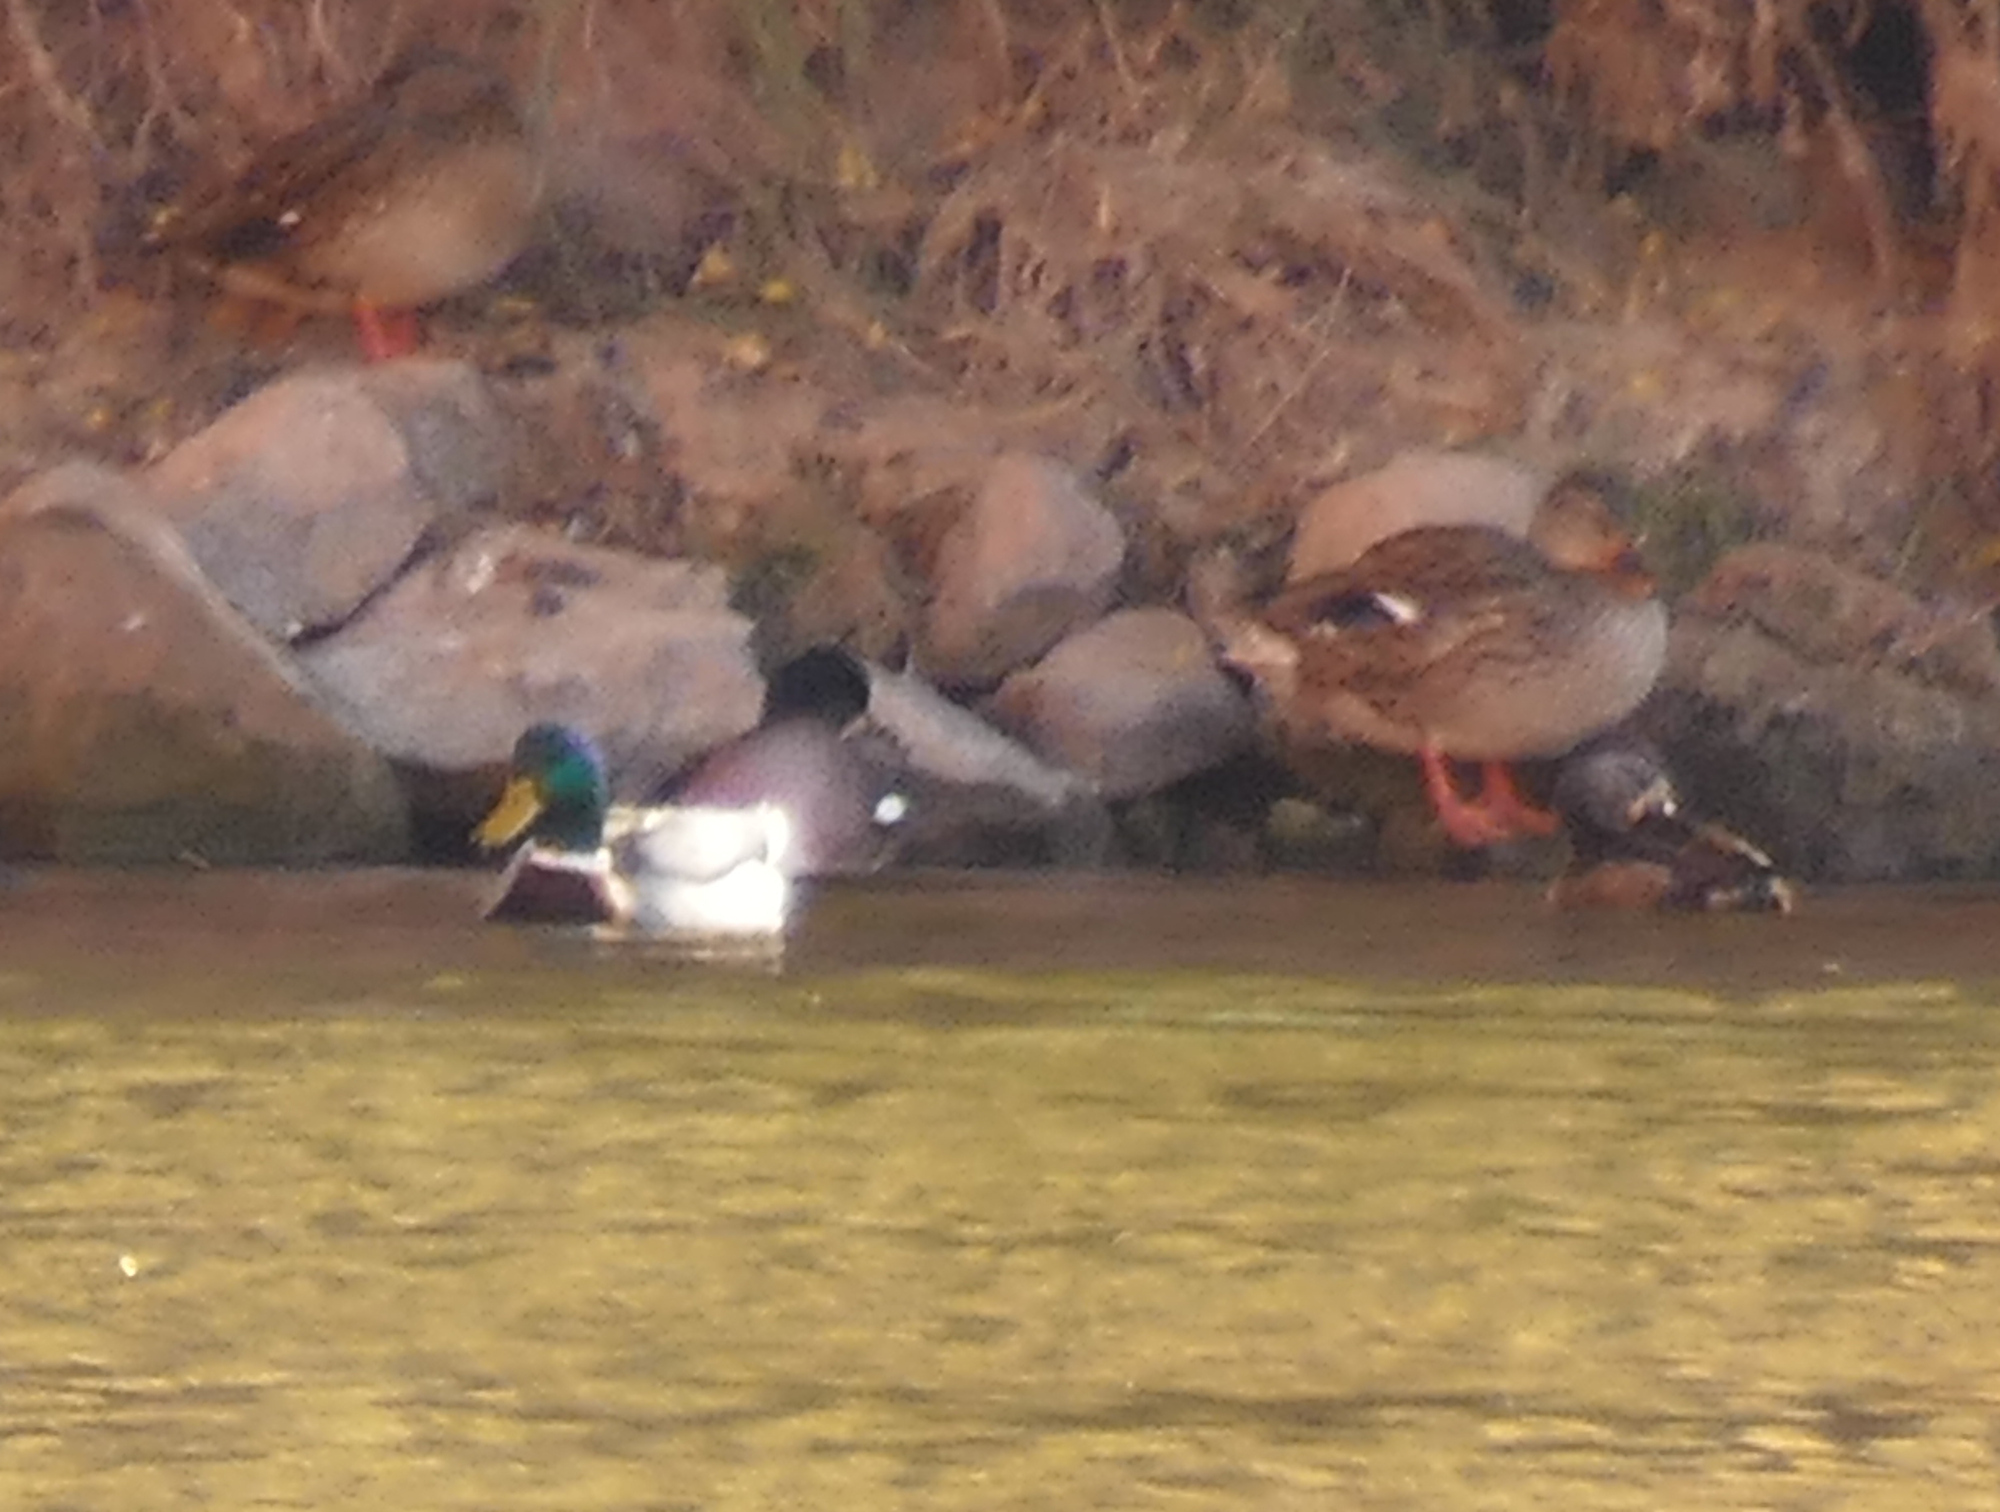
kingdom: Animalia
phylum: Chordata
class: Aves
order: Anseriformes
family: Anatidae
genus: Anas
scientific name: Anas platyrhynchos
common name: Mallard
